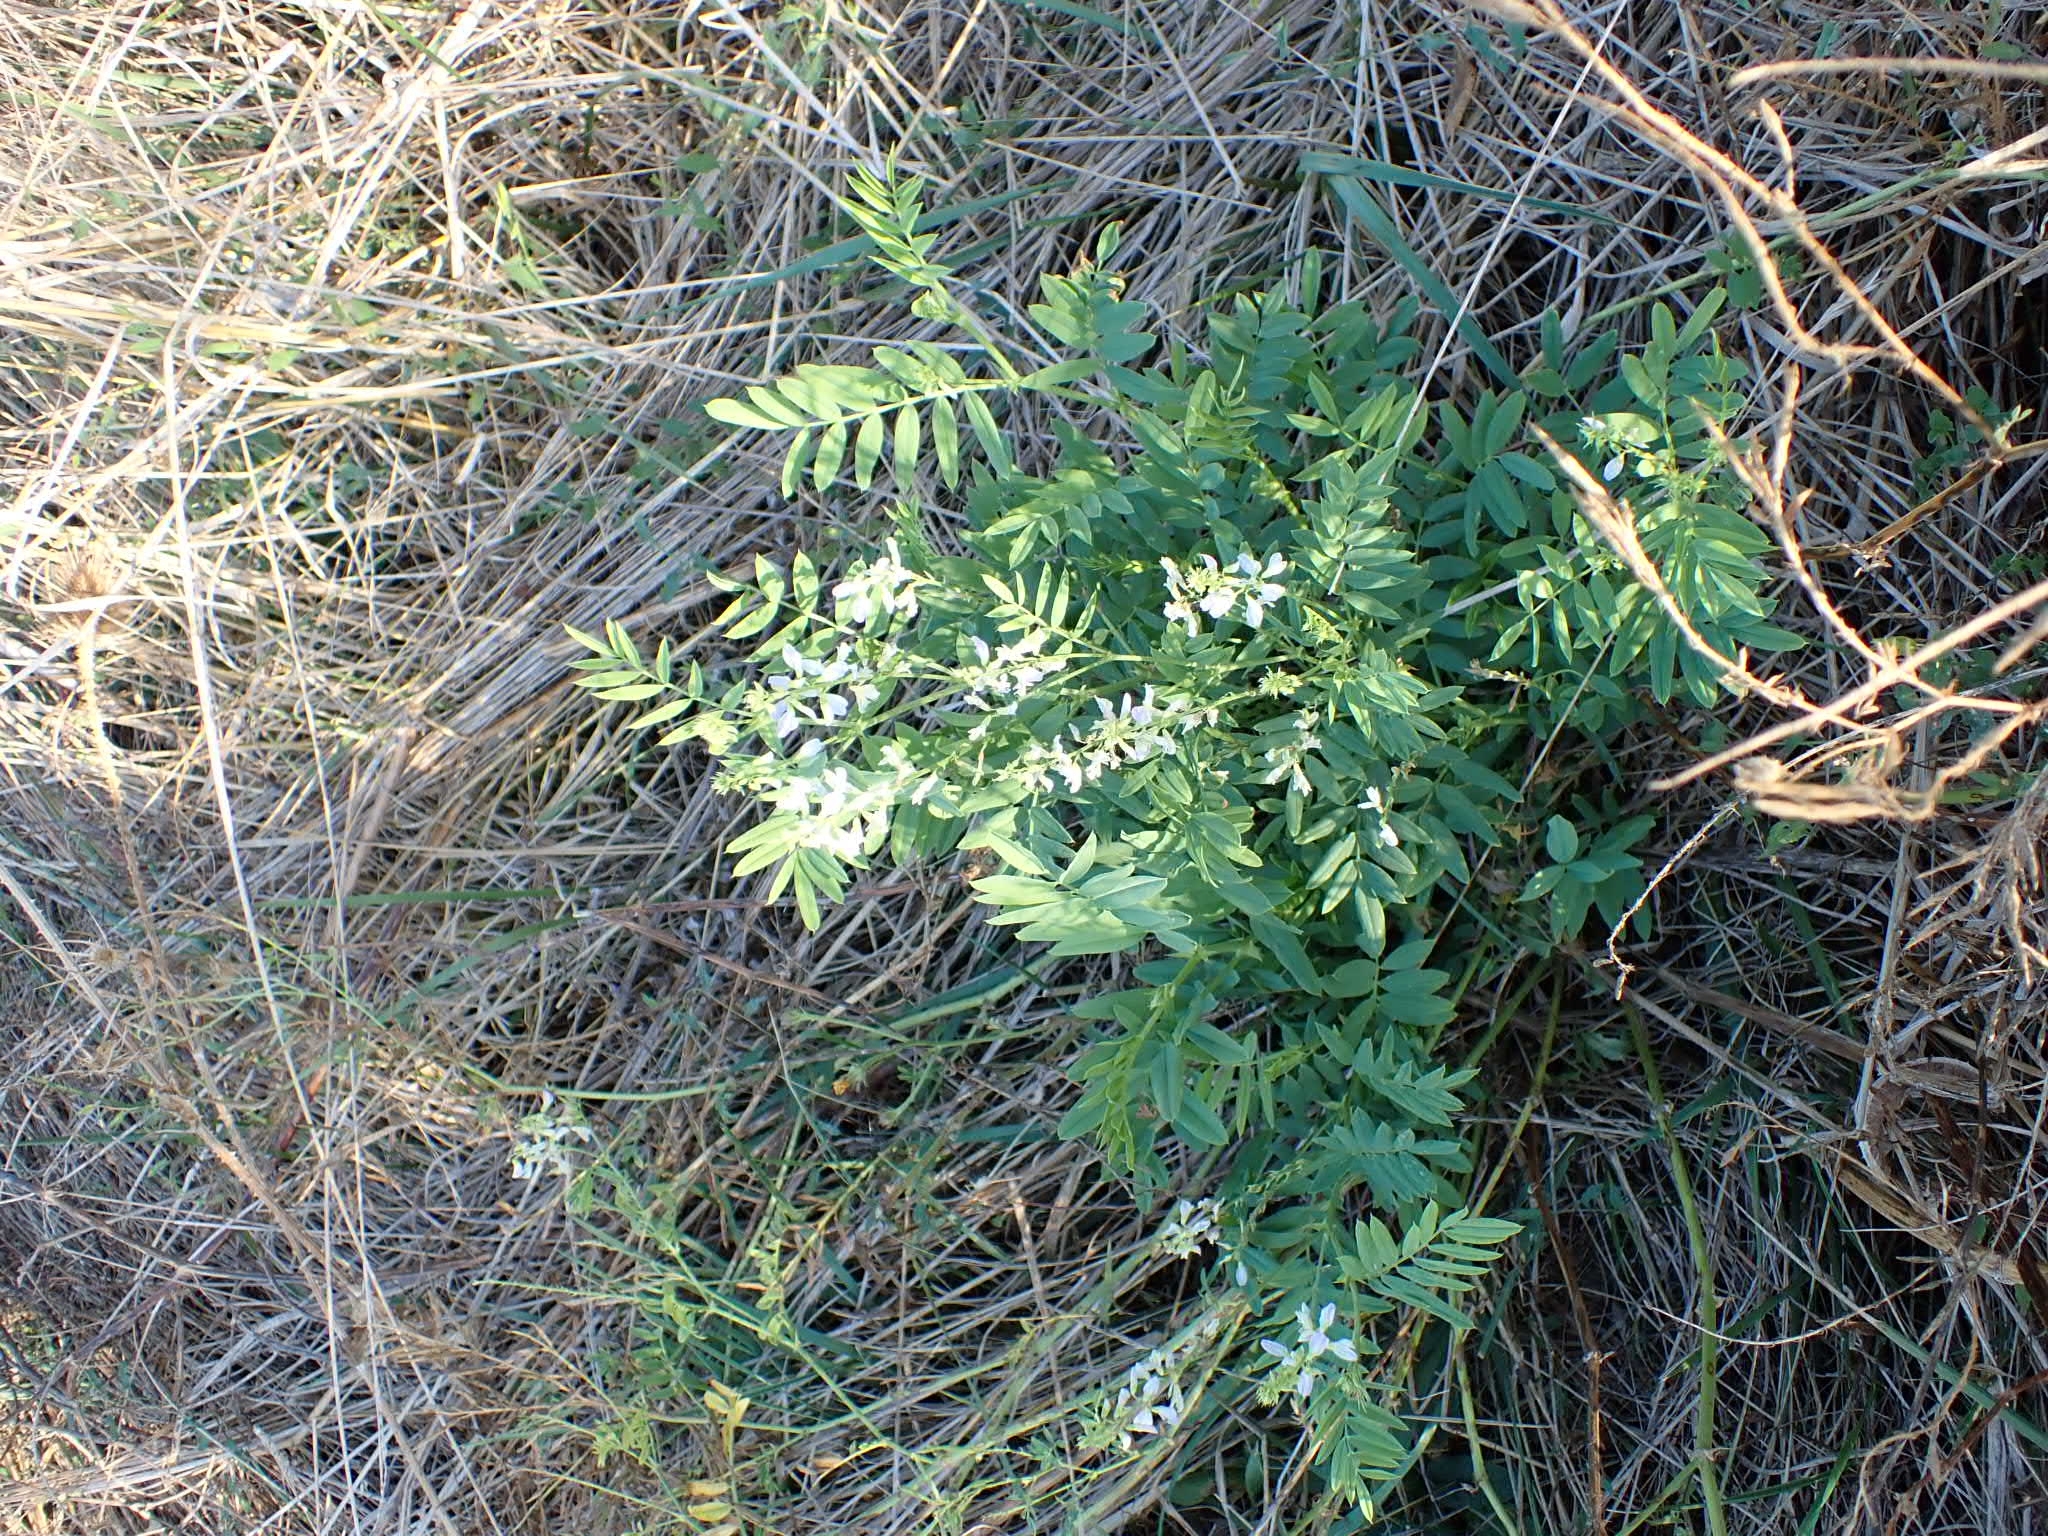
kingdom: Plantae
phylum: Tracheophyta
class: Magnoliopsida
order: Fabales
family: Fabaceae
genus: Galega
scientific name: Galega officinalis
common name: Goat's-rue
